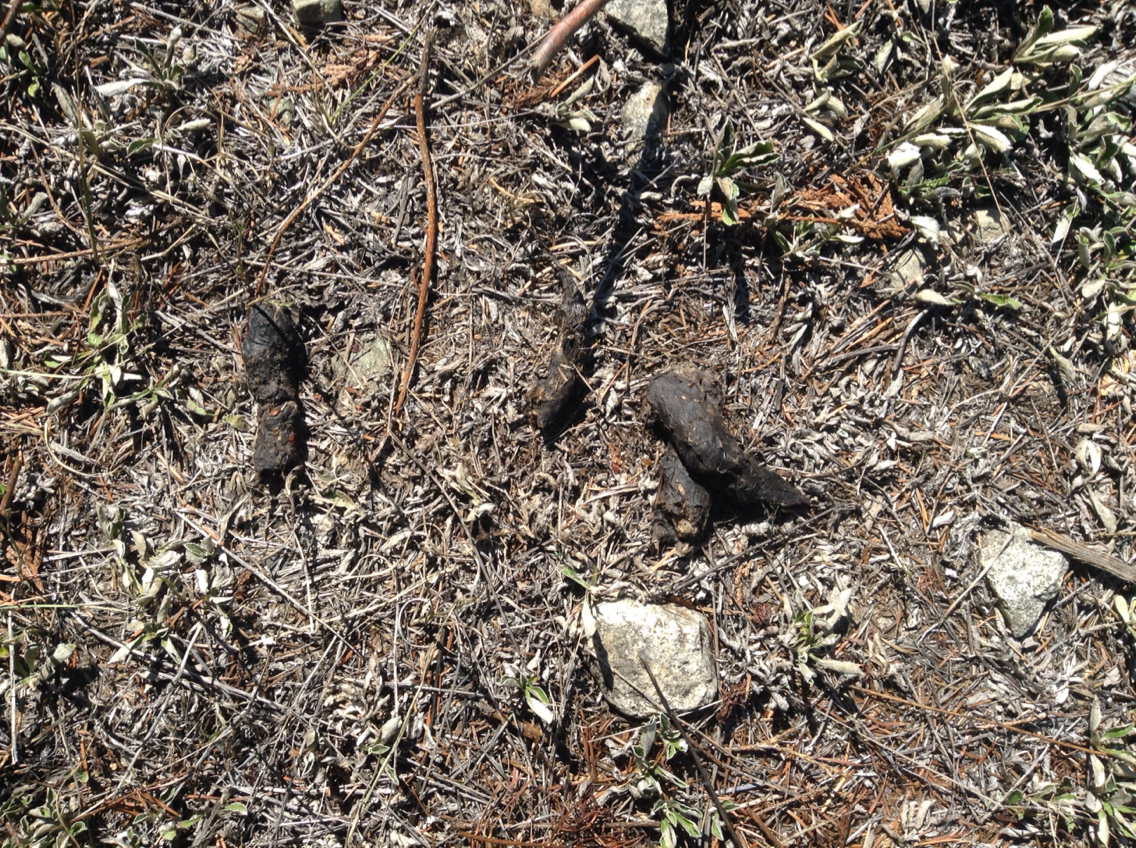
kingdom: Animalia
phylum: Chordata
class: Mammalia
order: Carnivora
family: Canidae
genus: Canis
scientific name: Canis latrans
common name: Coyote
